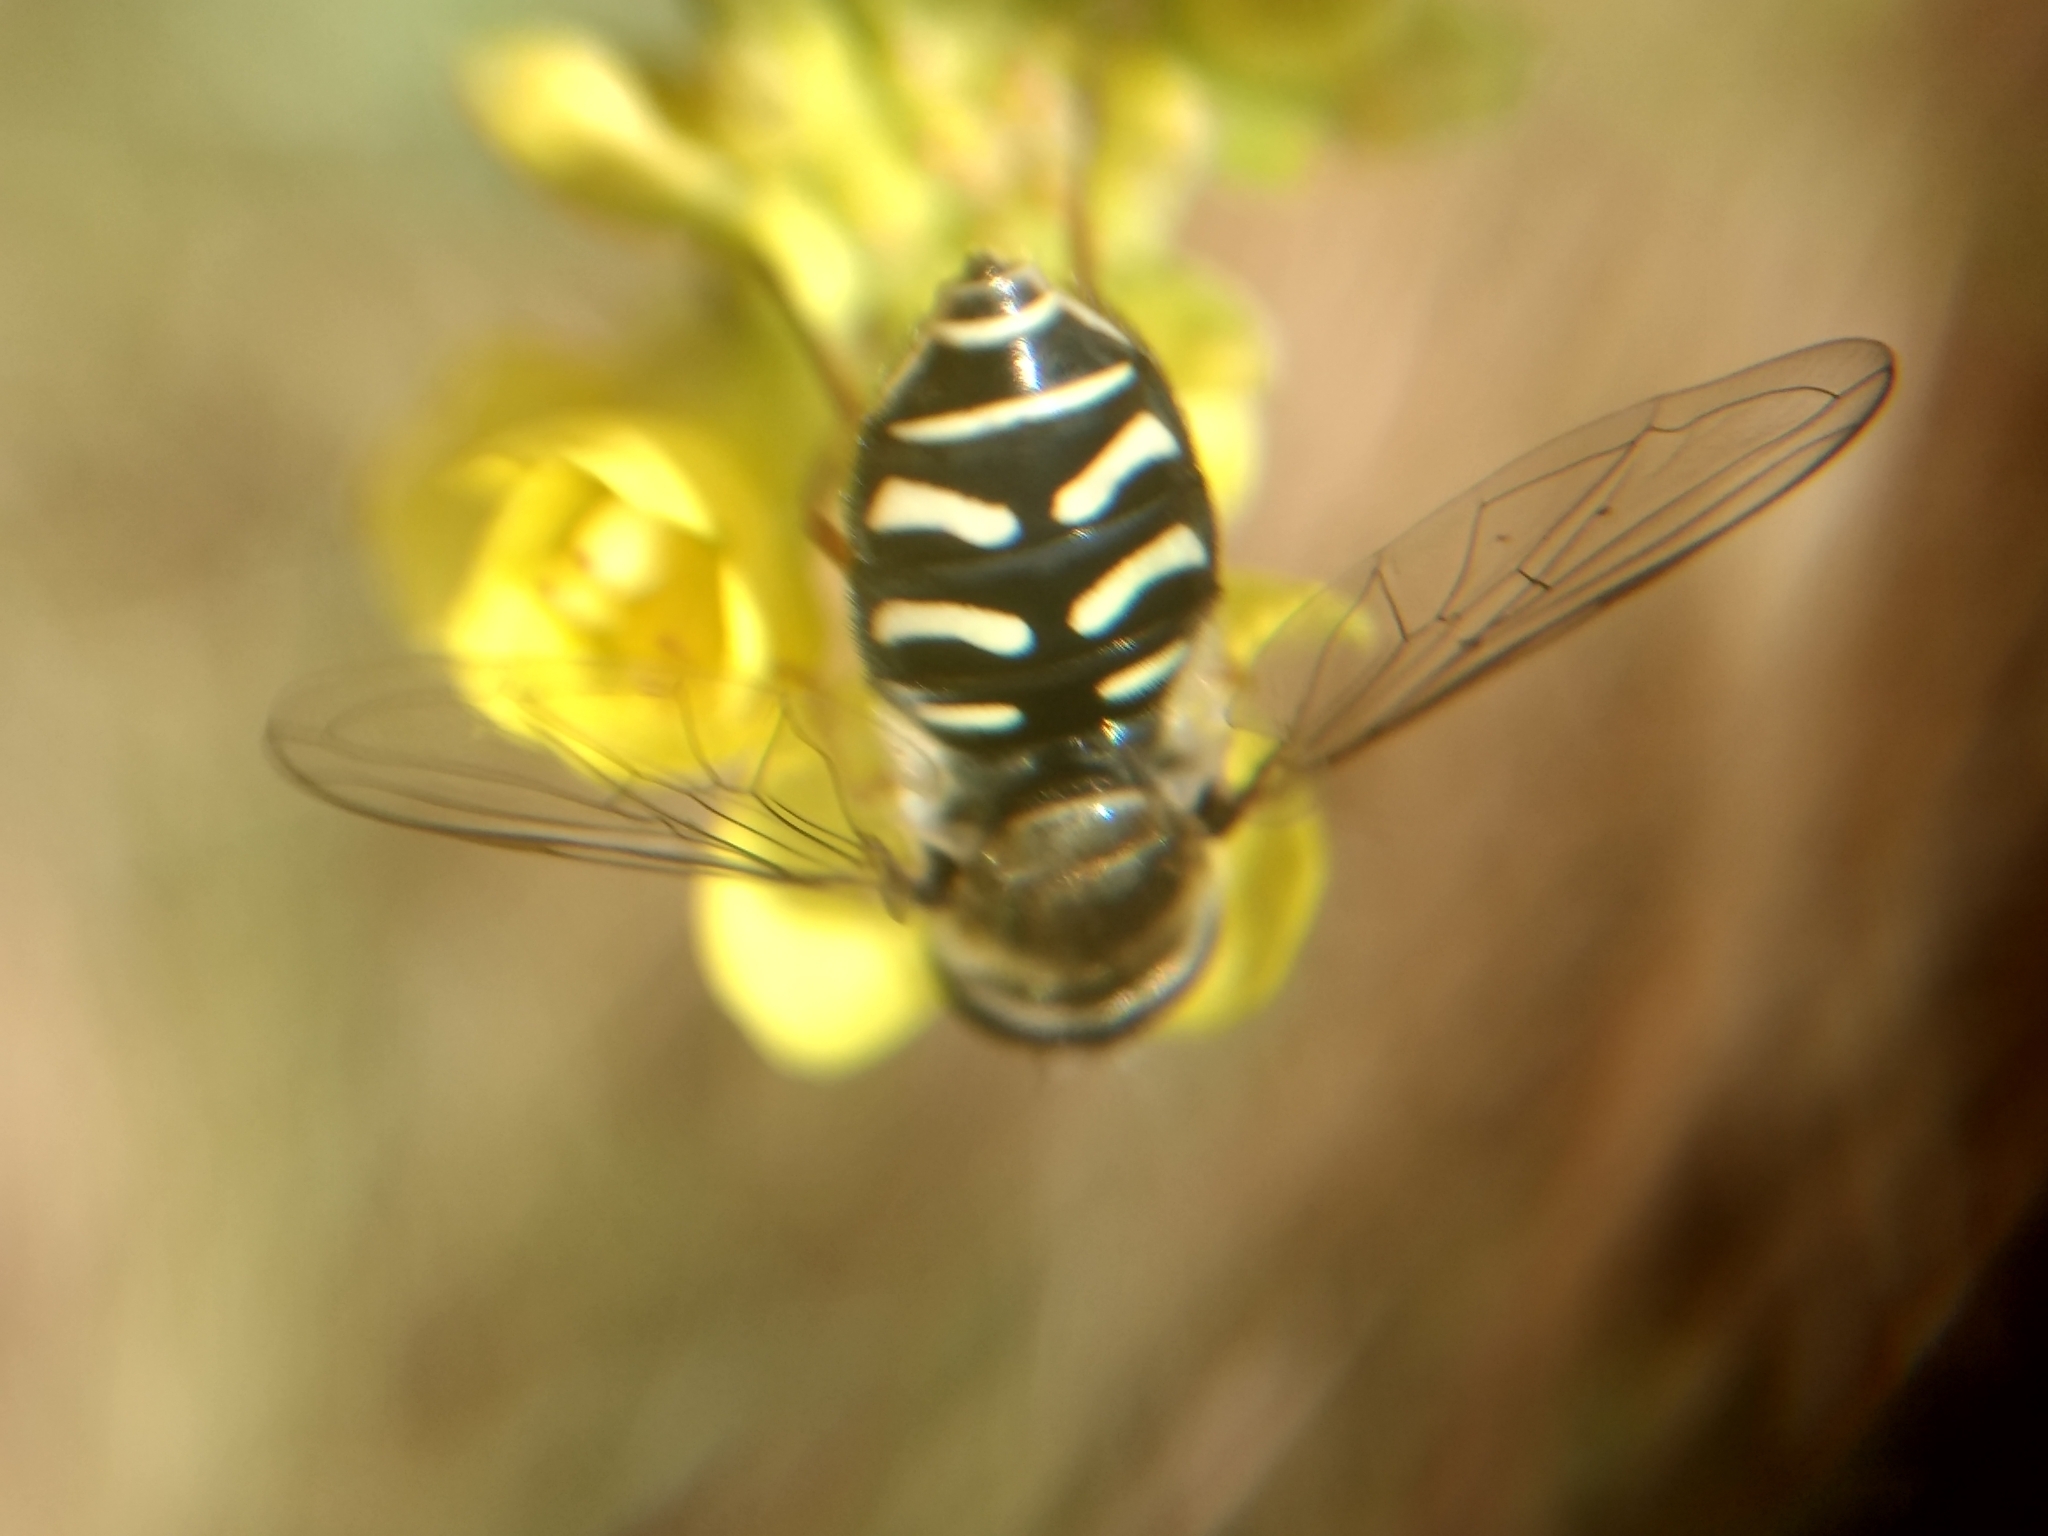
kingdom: Animalia
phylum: Arthropoda
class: Insecta
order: Diptera
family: Syrphidae
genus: Eupeodes
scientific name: Eupeodes volucris
